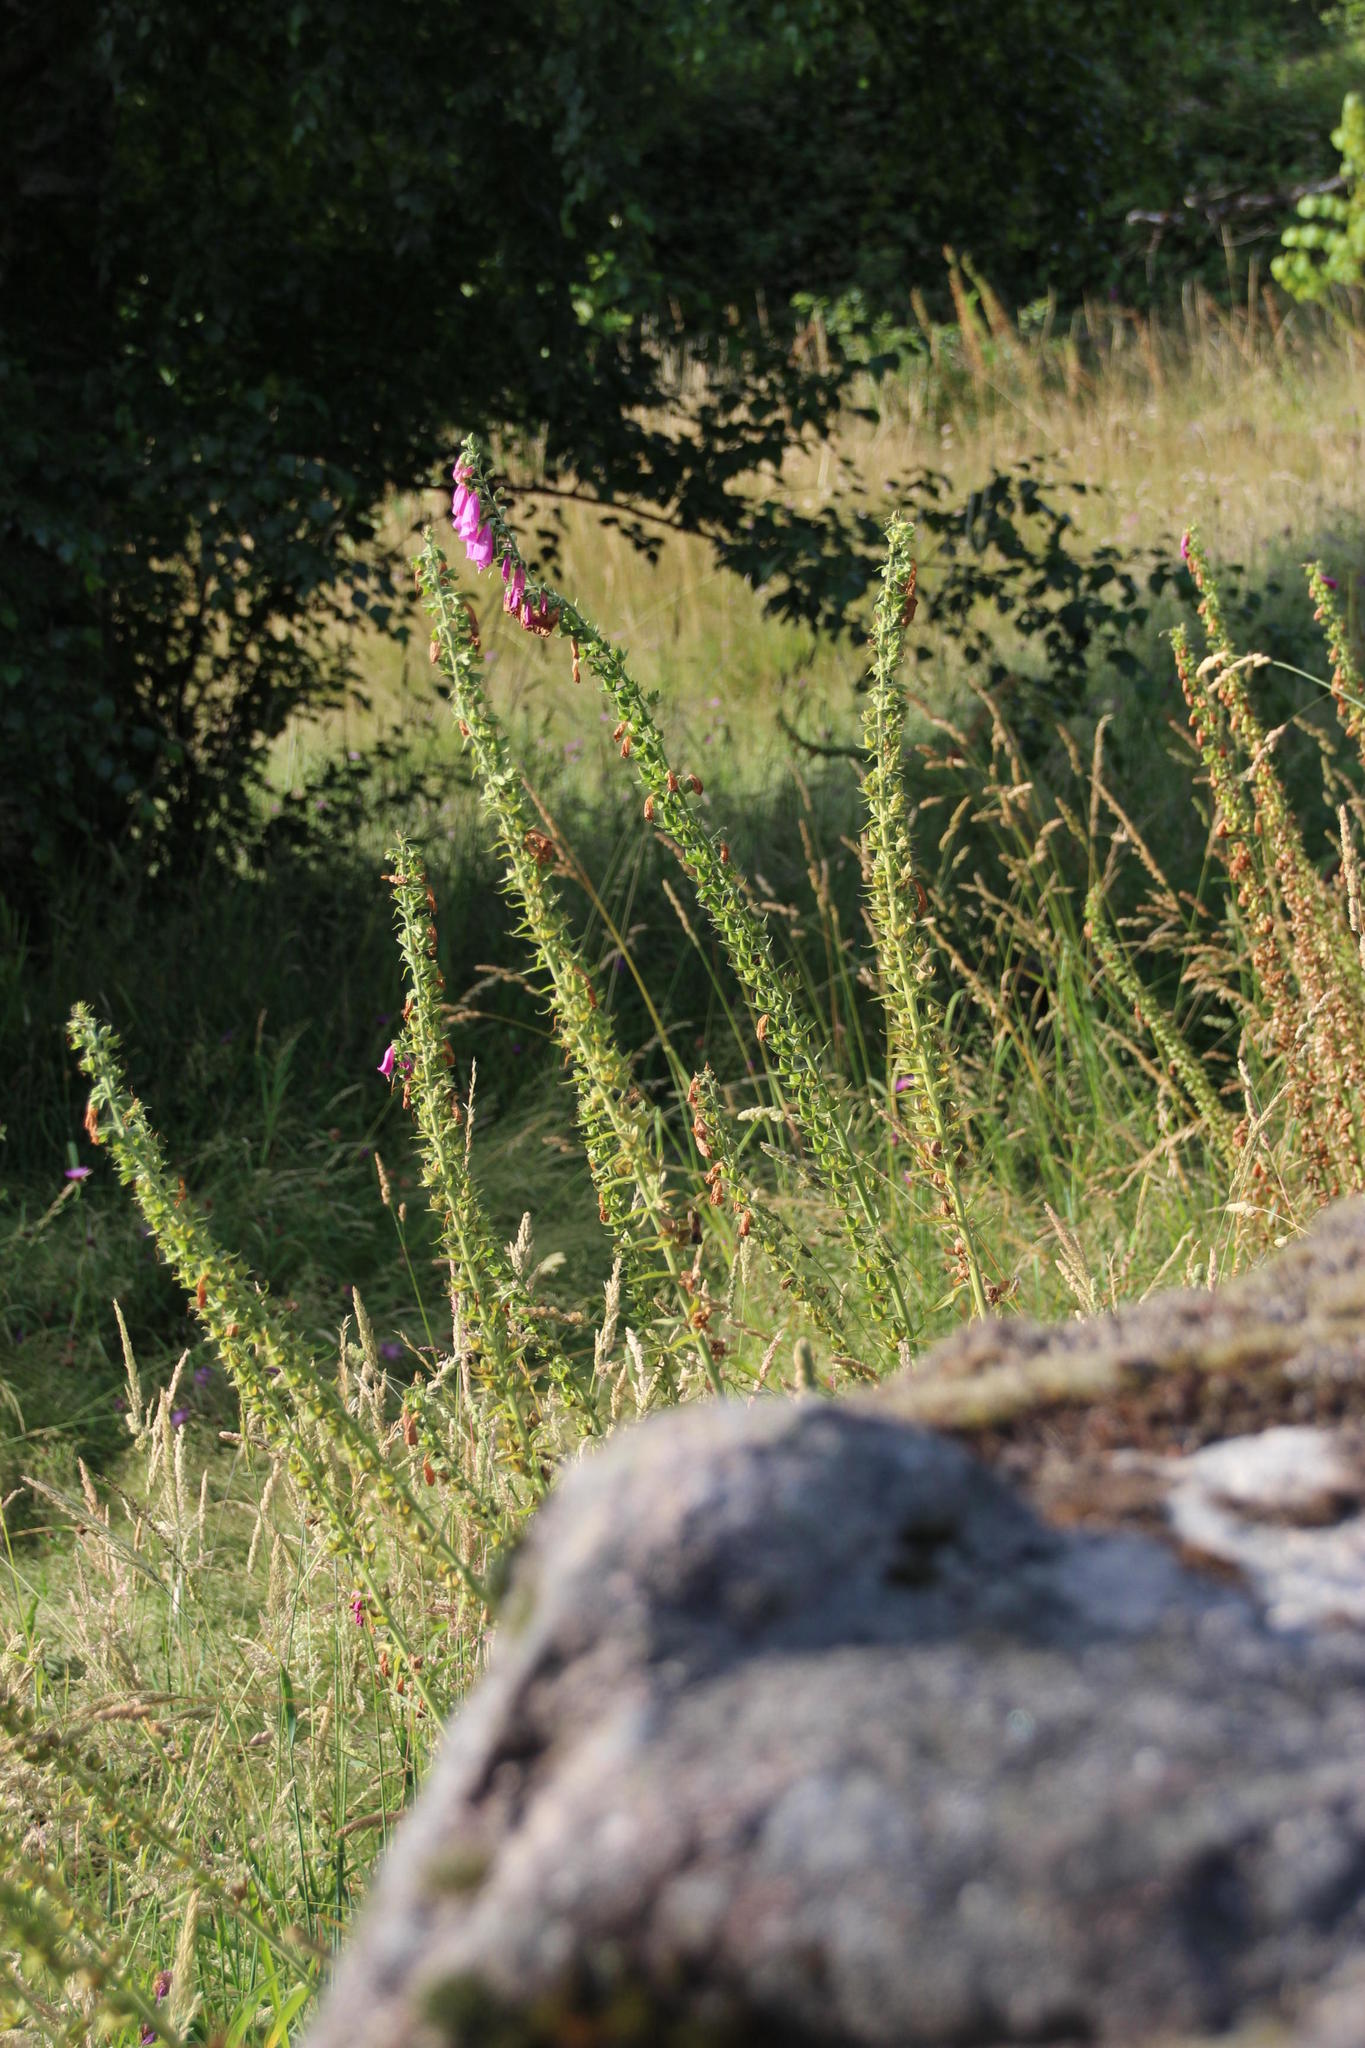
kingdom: Plantae
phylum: Tracheophyta
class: Magnoliopsida
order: Lamiales
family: Plantaginaceae
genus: Digitalis
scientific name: Digitalis purpurea
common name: Foxglove
